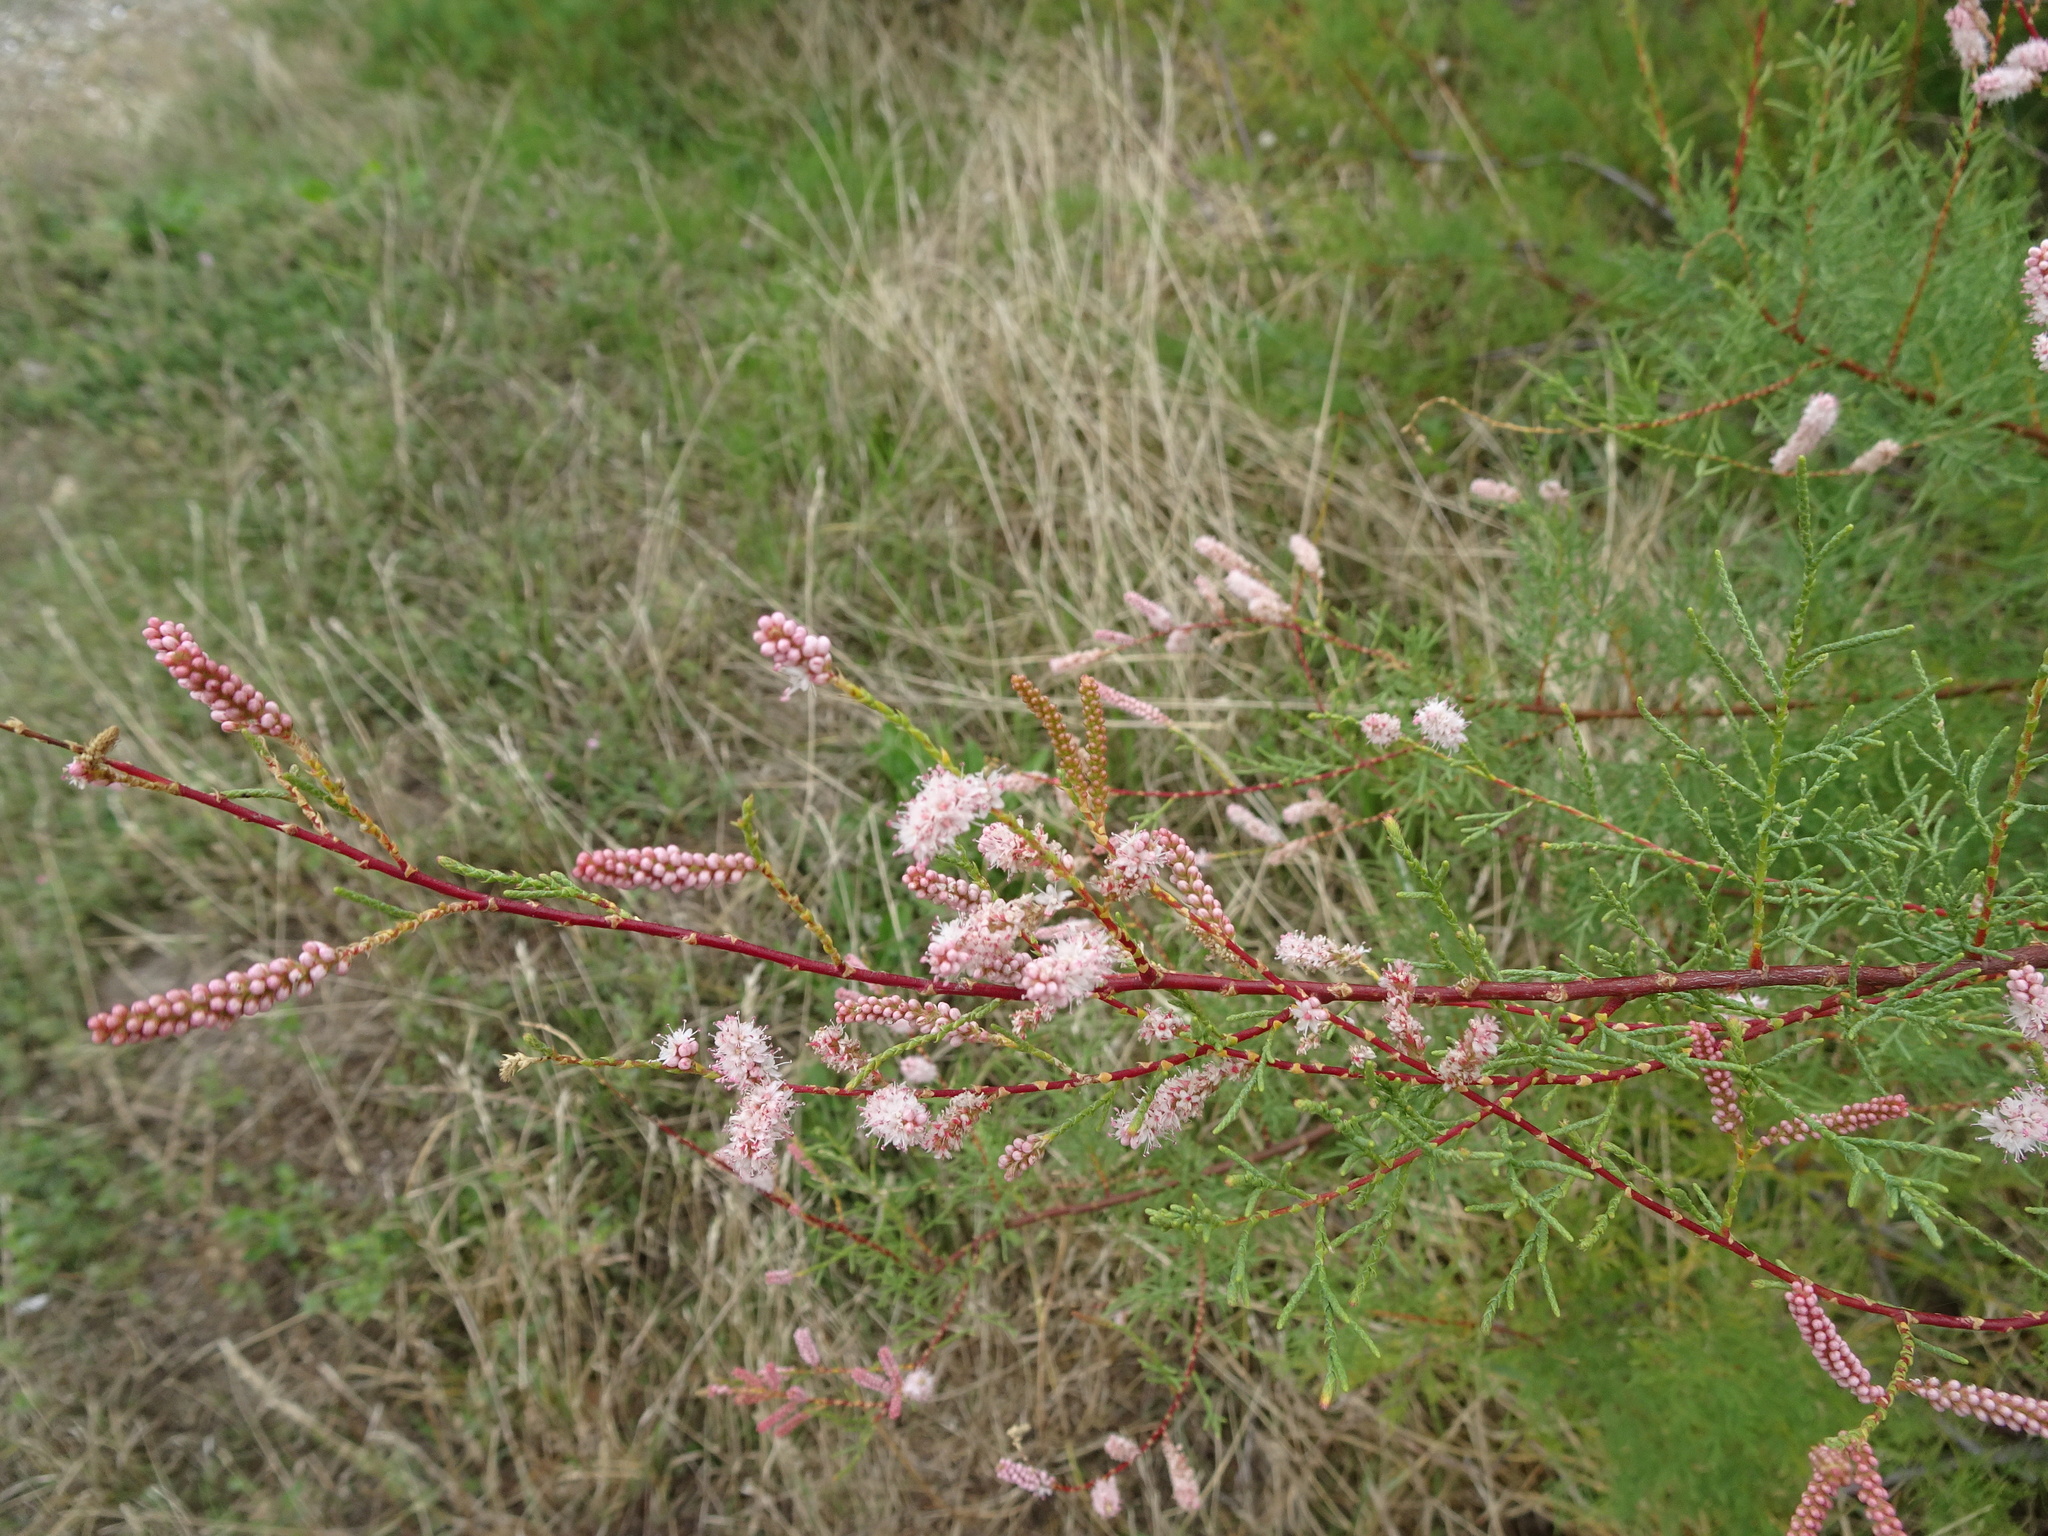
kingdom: Plantae
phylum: Tracheophyta
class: Magnoliopsida
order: Caryophyllales
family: Tamaricaceae
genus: Tamarix
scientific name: Tamarix gallica
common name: Tamarisk
